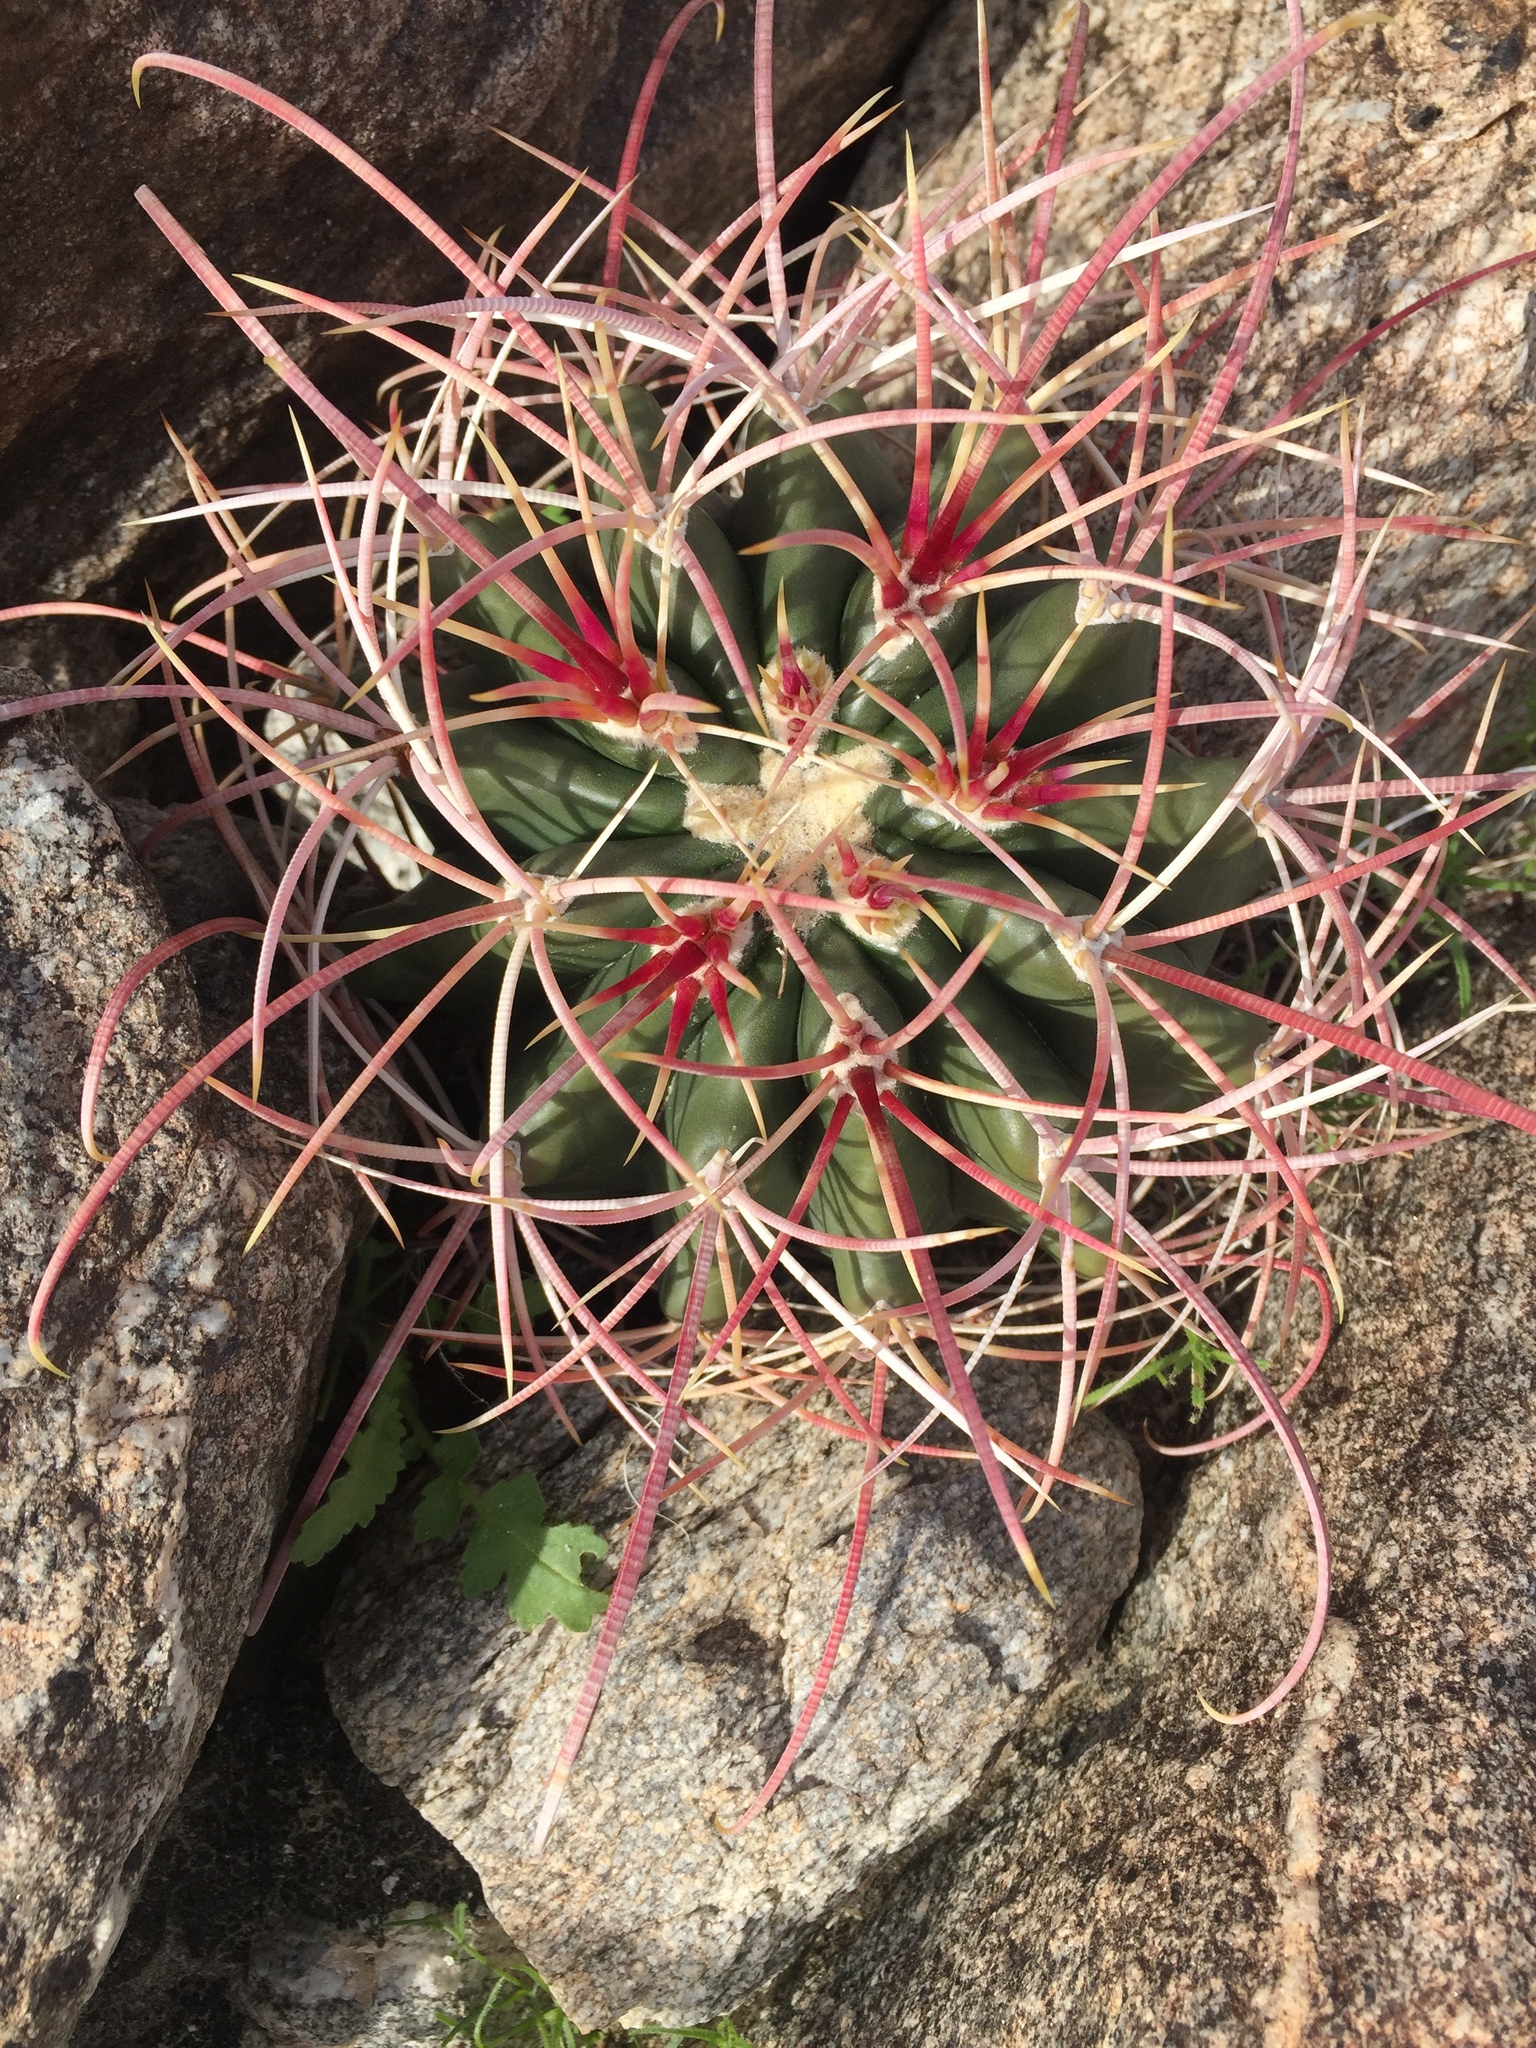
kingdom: Plantae
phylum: Tracheophyta
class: Magnoliopsida
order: Caryophyllales
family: Cactaceae
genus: Ferocactus
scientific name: Ferocactus cylindraceus
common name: California barrel cactus
